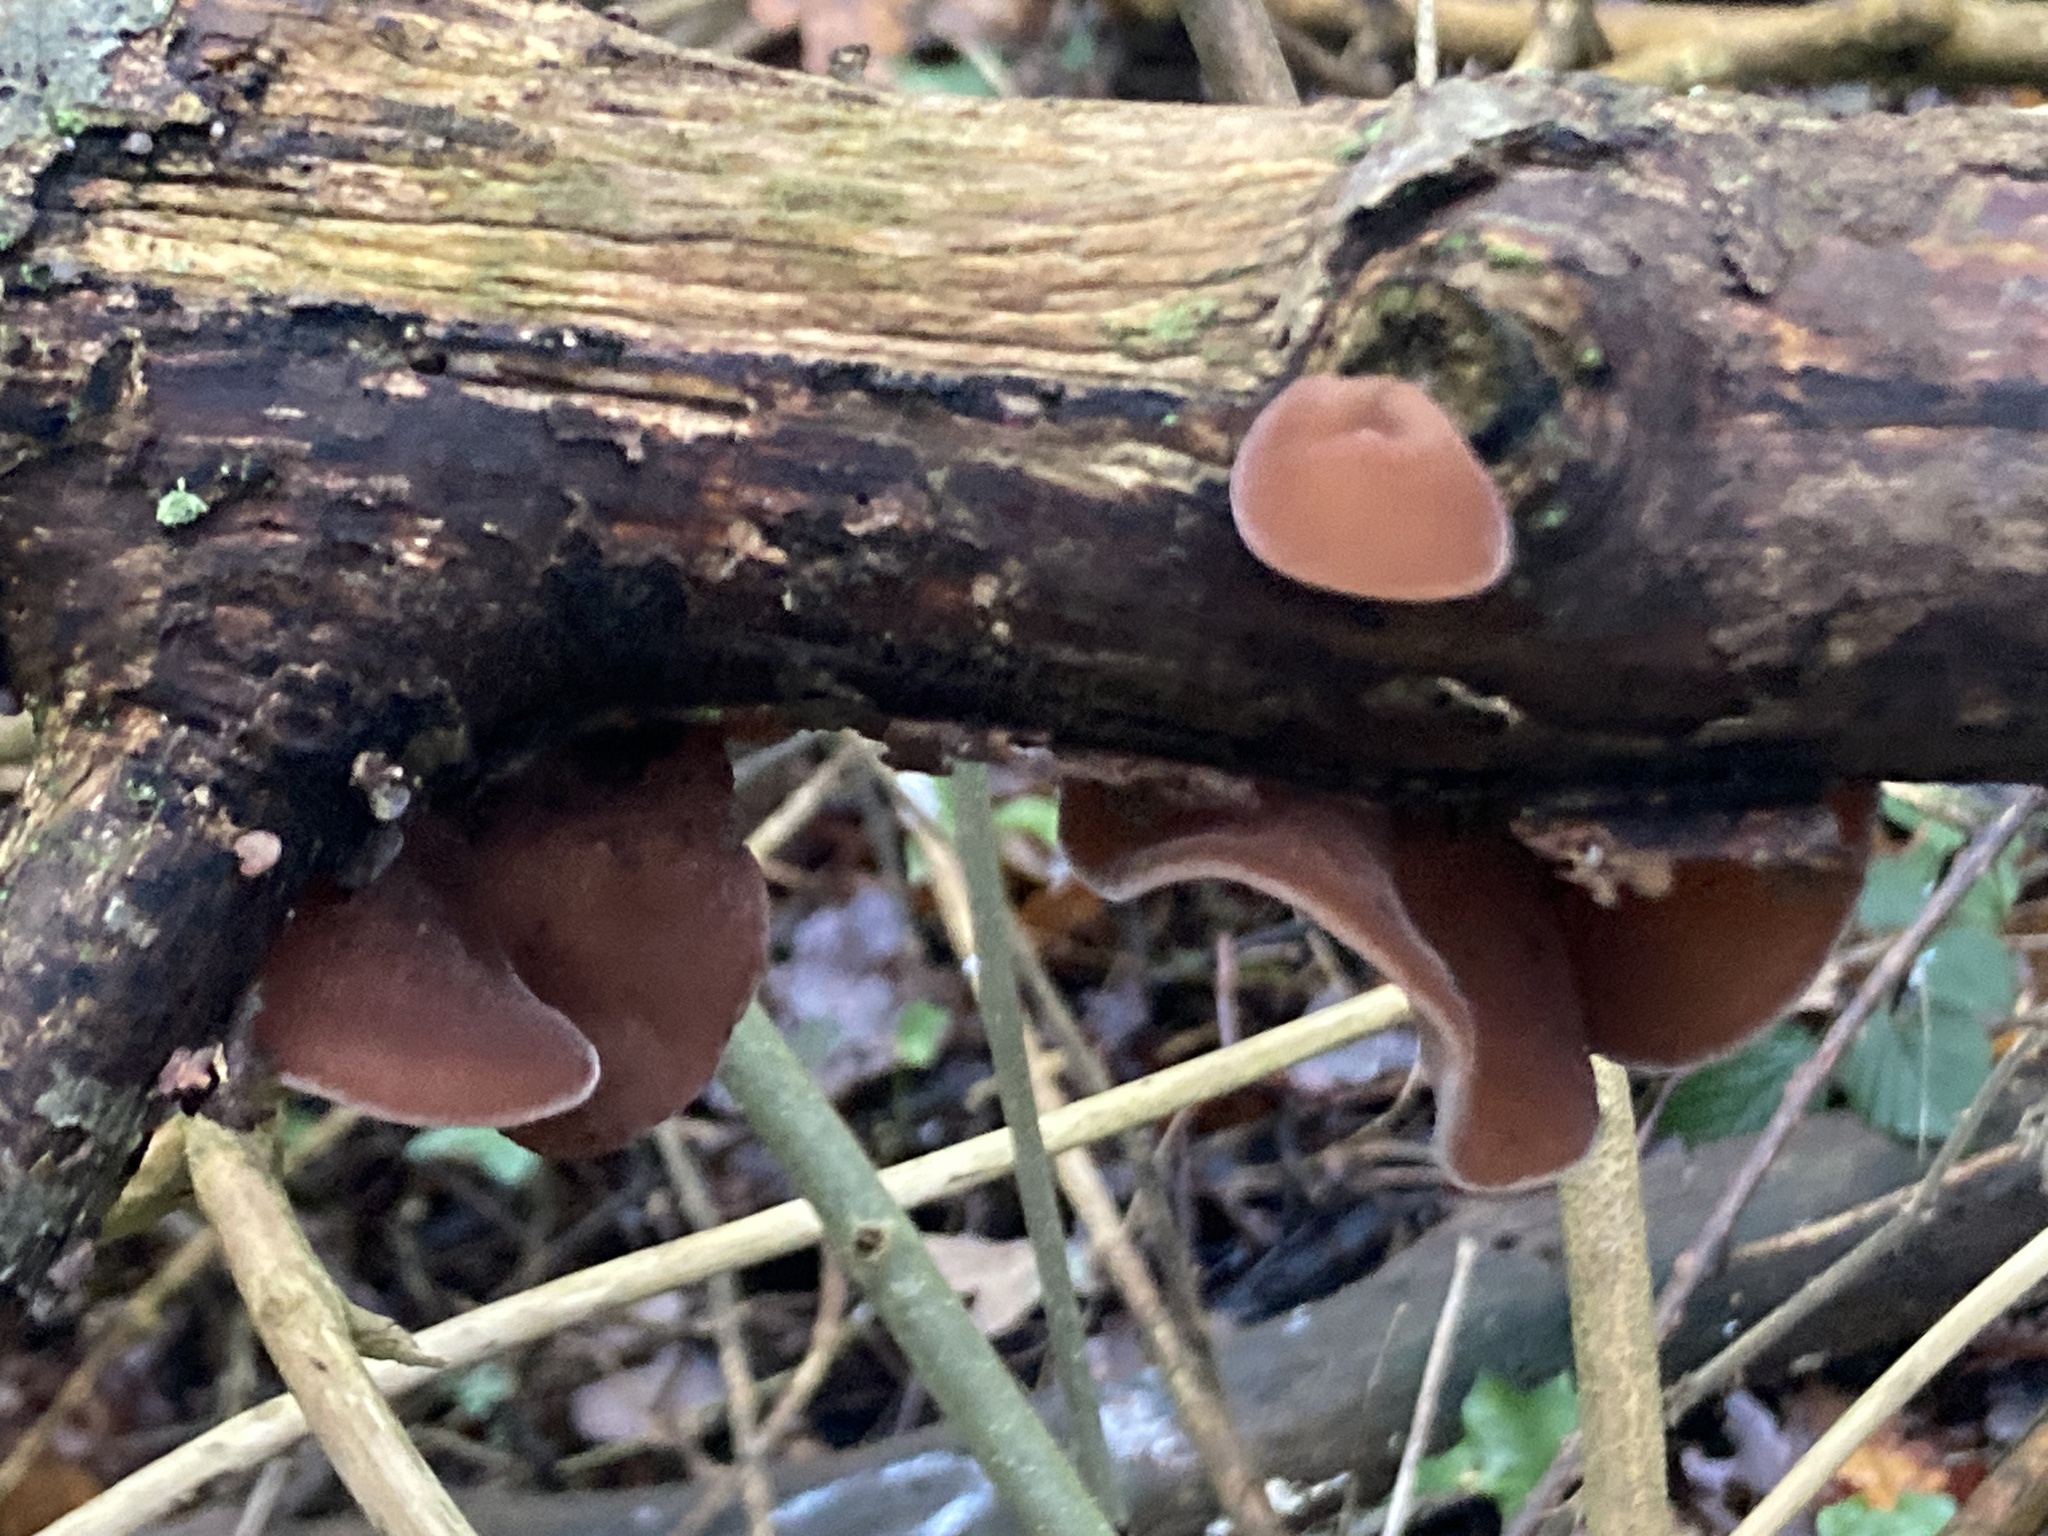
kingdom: Fungi
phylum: Basidiomycota
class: Agaricomycetes
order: Auriculariales
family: Auriculariaceae
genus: Auricularia
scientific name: Auricularia auricula-judae
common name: Jelly ear
